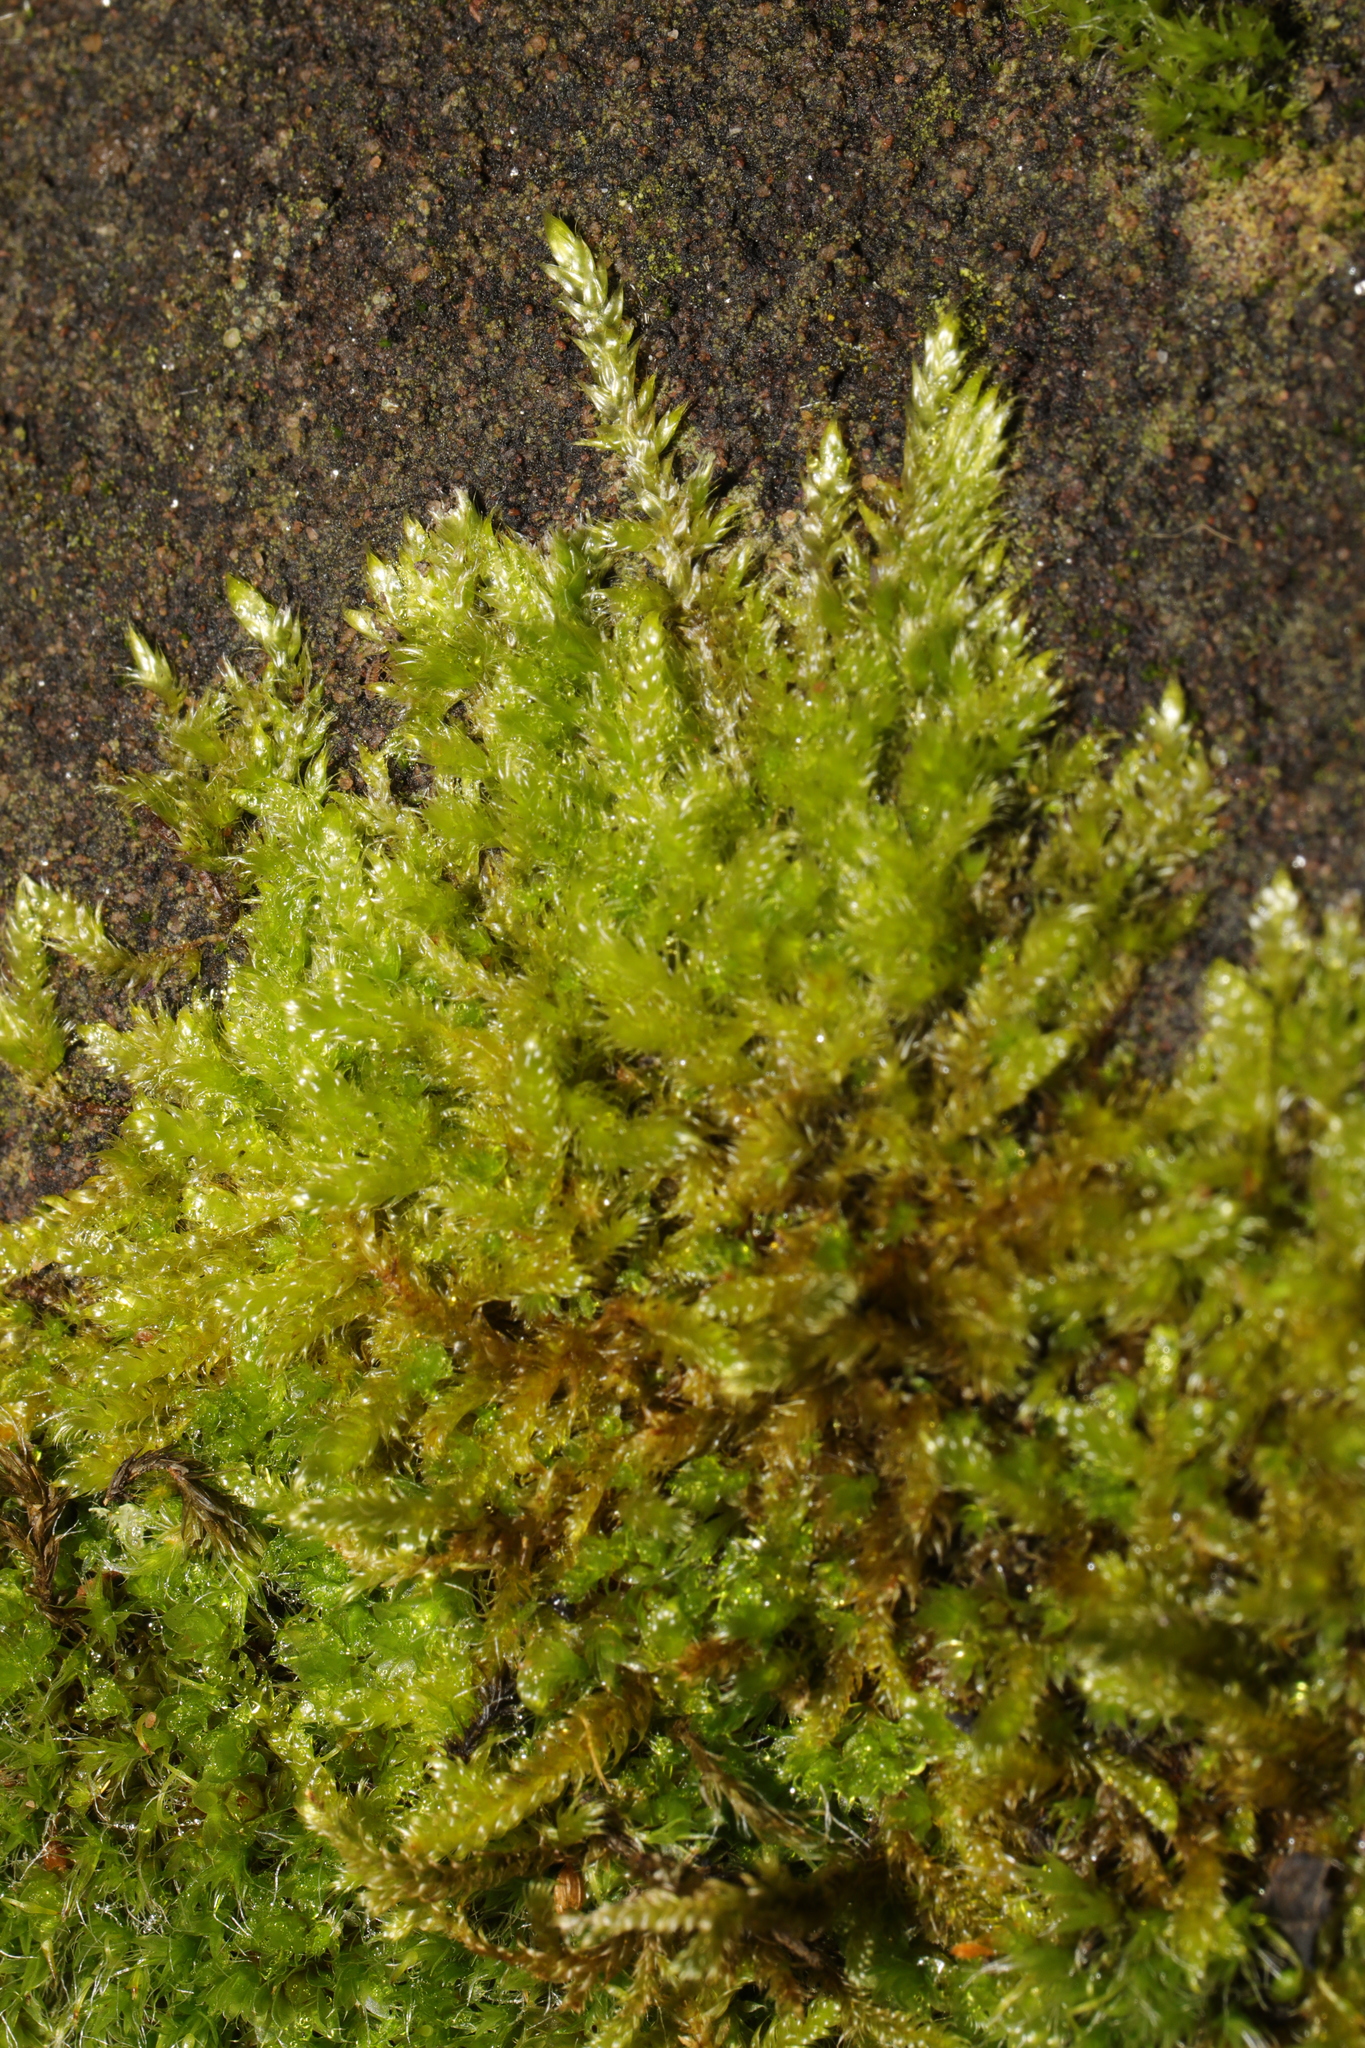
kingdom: Plantae
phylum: Bryophyta
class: Bryopsida
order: Hypnales
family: Hypnaceae
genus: Hypnum
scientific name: Hypnum cupressiforme
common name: Cypress-leaved plait-moss
